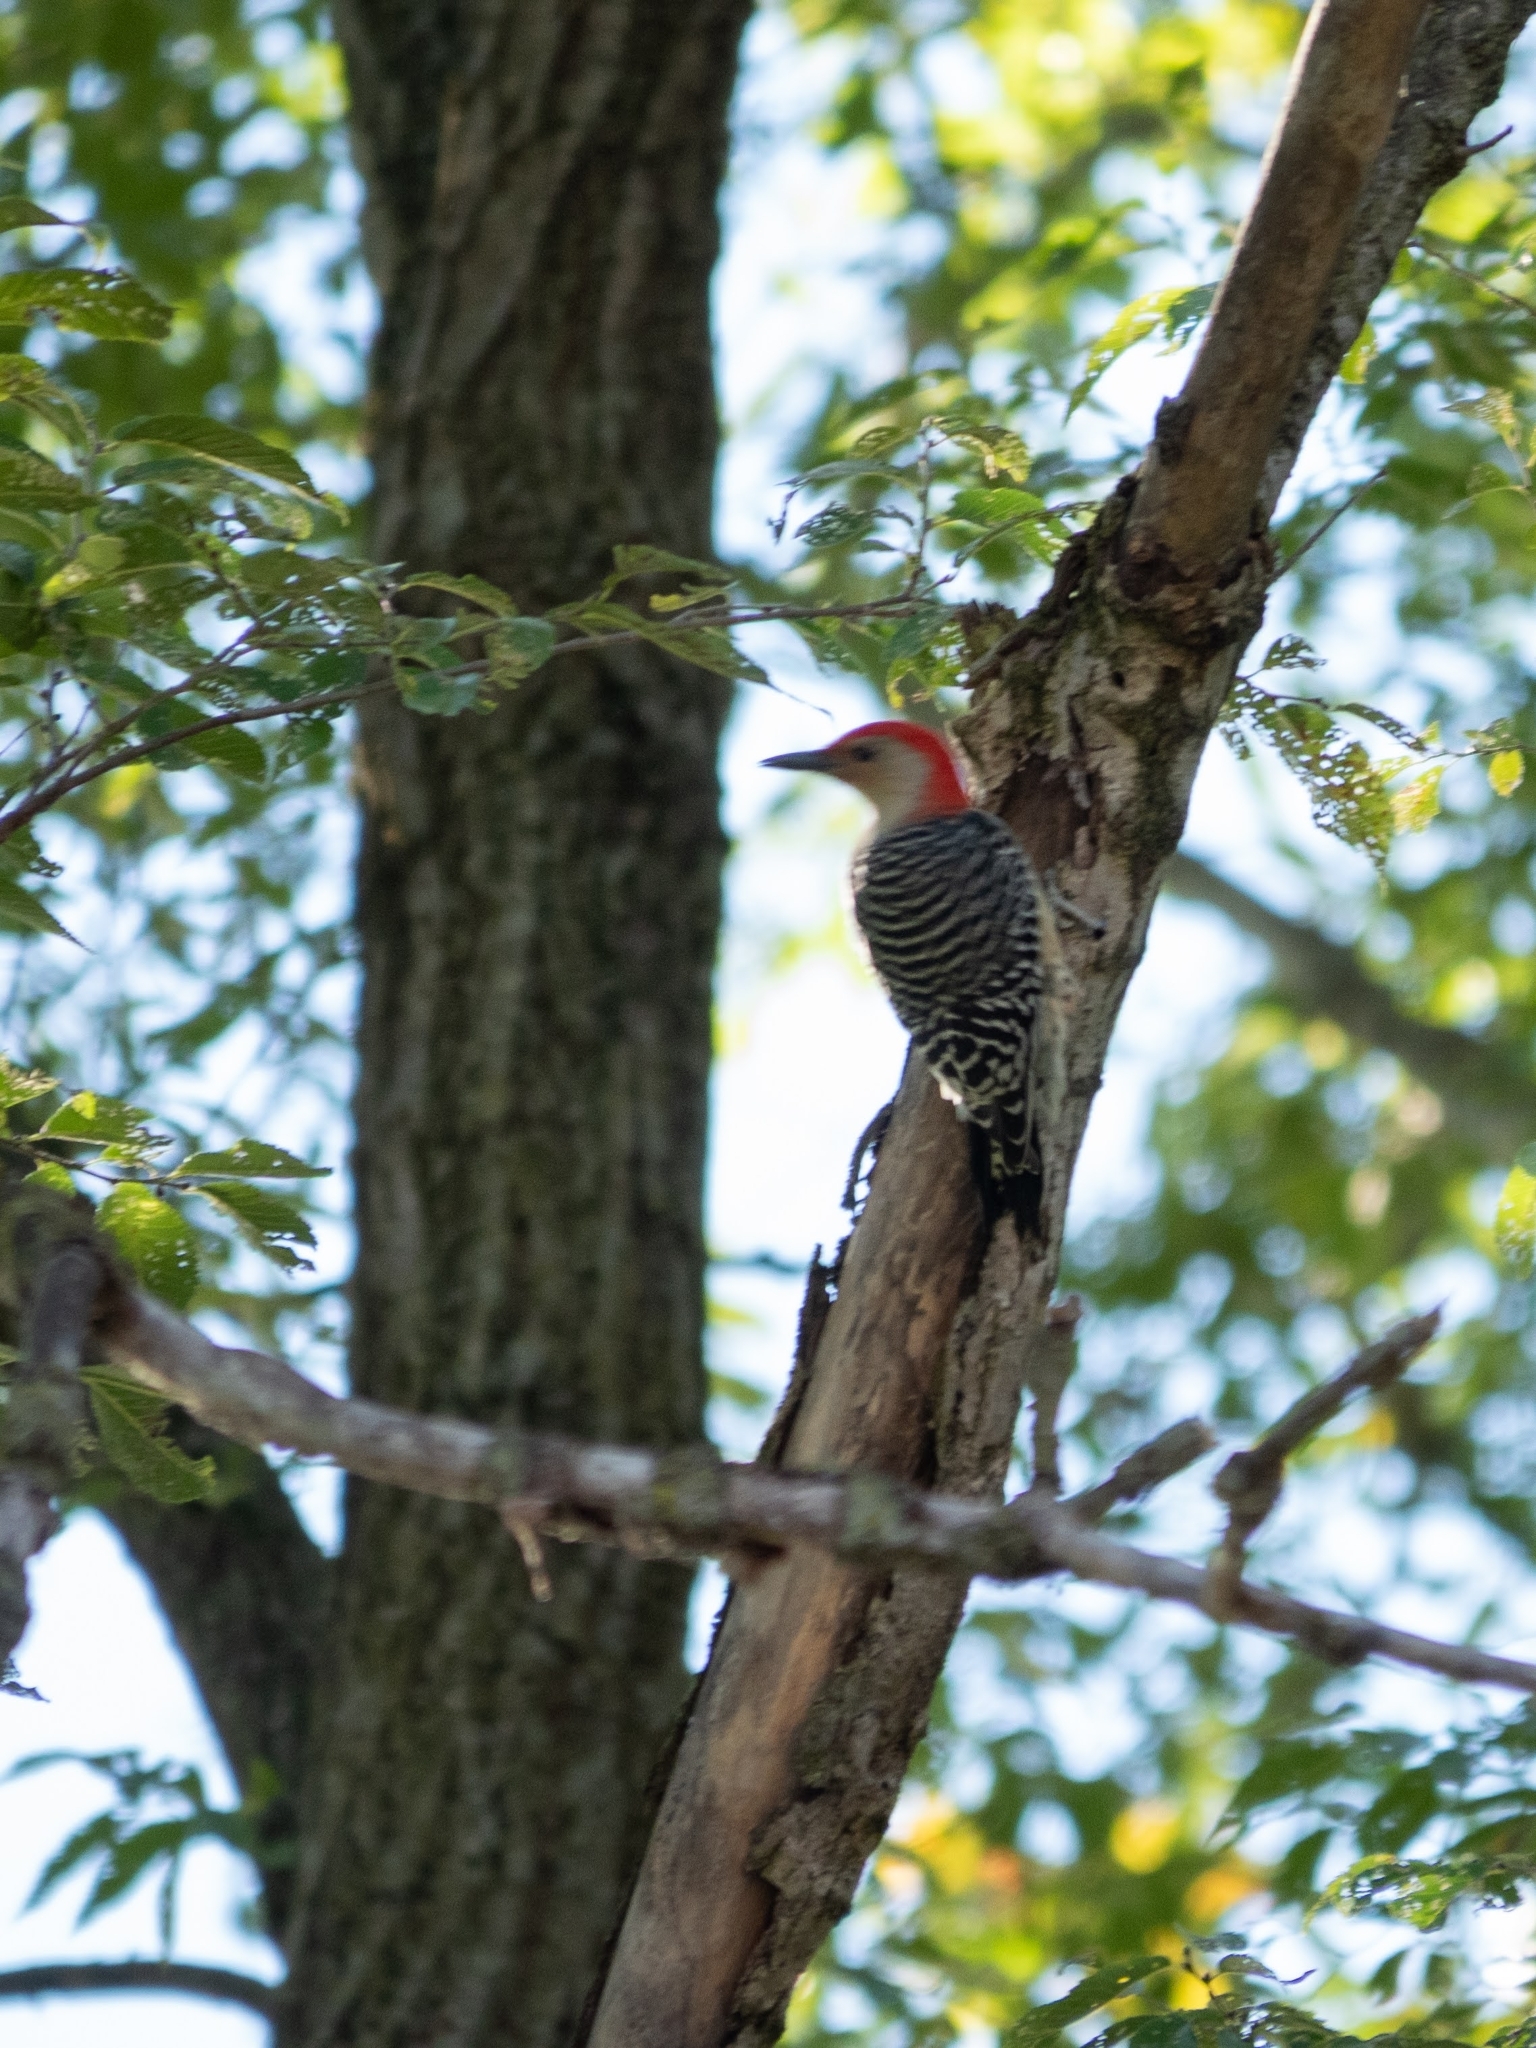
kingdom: Animalia
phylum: Chordata
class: Aves
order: Piciformes
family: Picidae
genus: Melanerpes
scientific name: Melanerpes carolinus
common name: Red-bellied woodpecker
